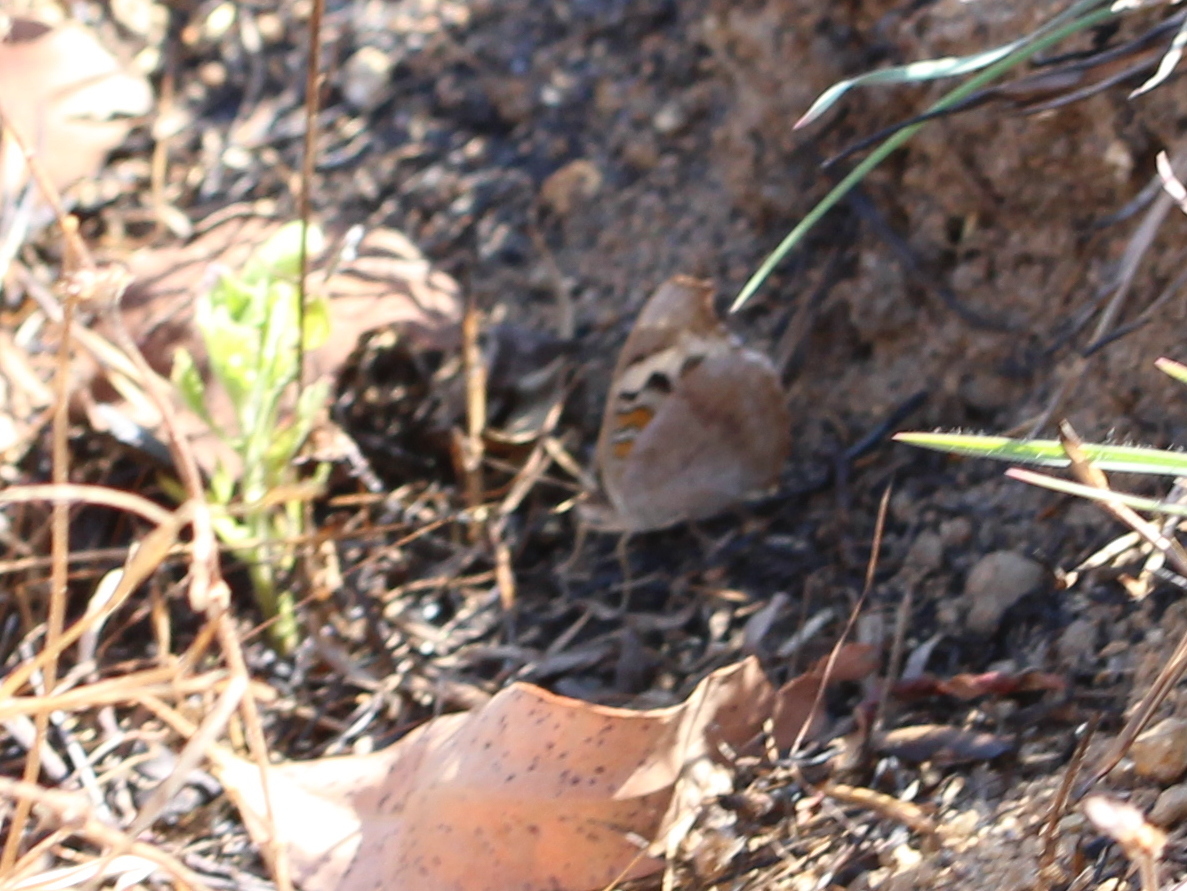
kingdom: Animalia
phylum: Arthropoda
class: Insecta
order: Lepidoptera
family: Nymphalidae
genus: Junonia
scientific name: Junonia orithya
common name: Blue pansy
